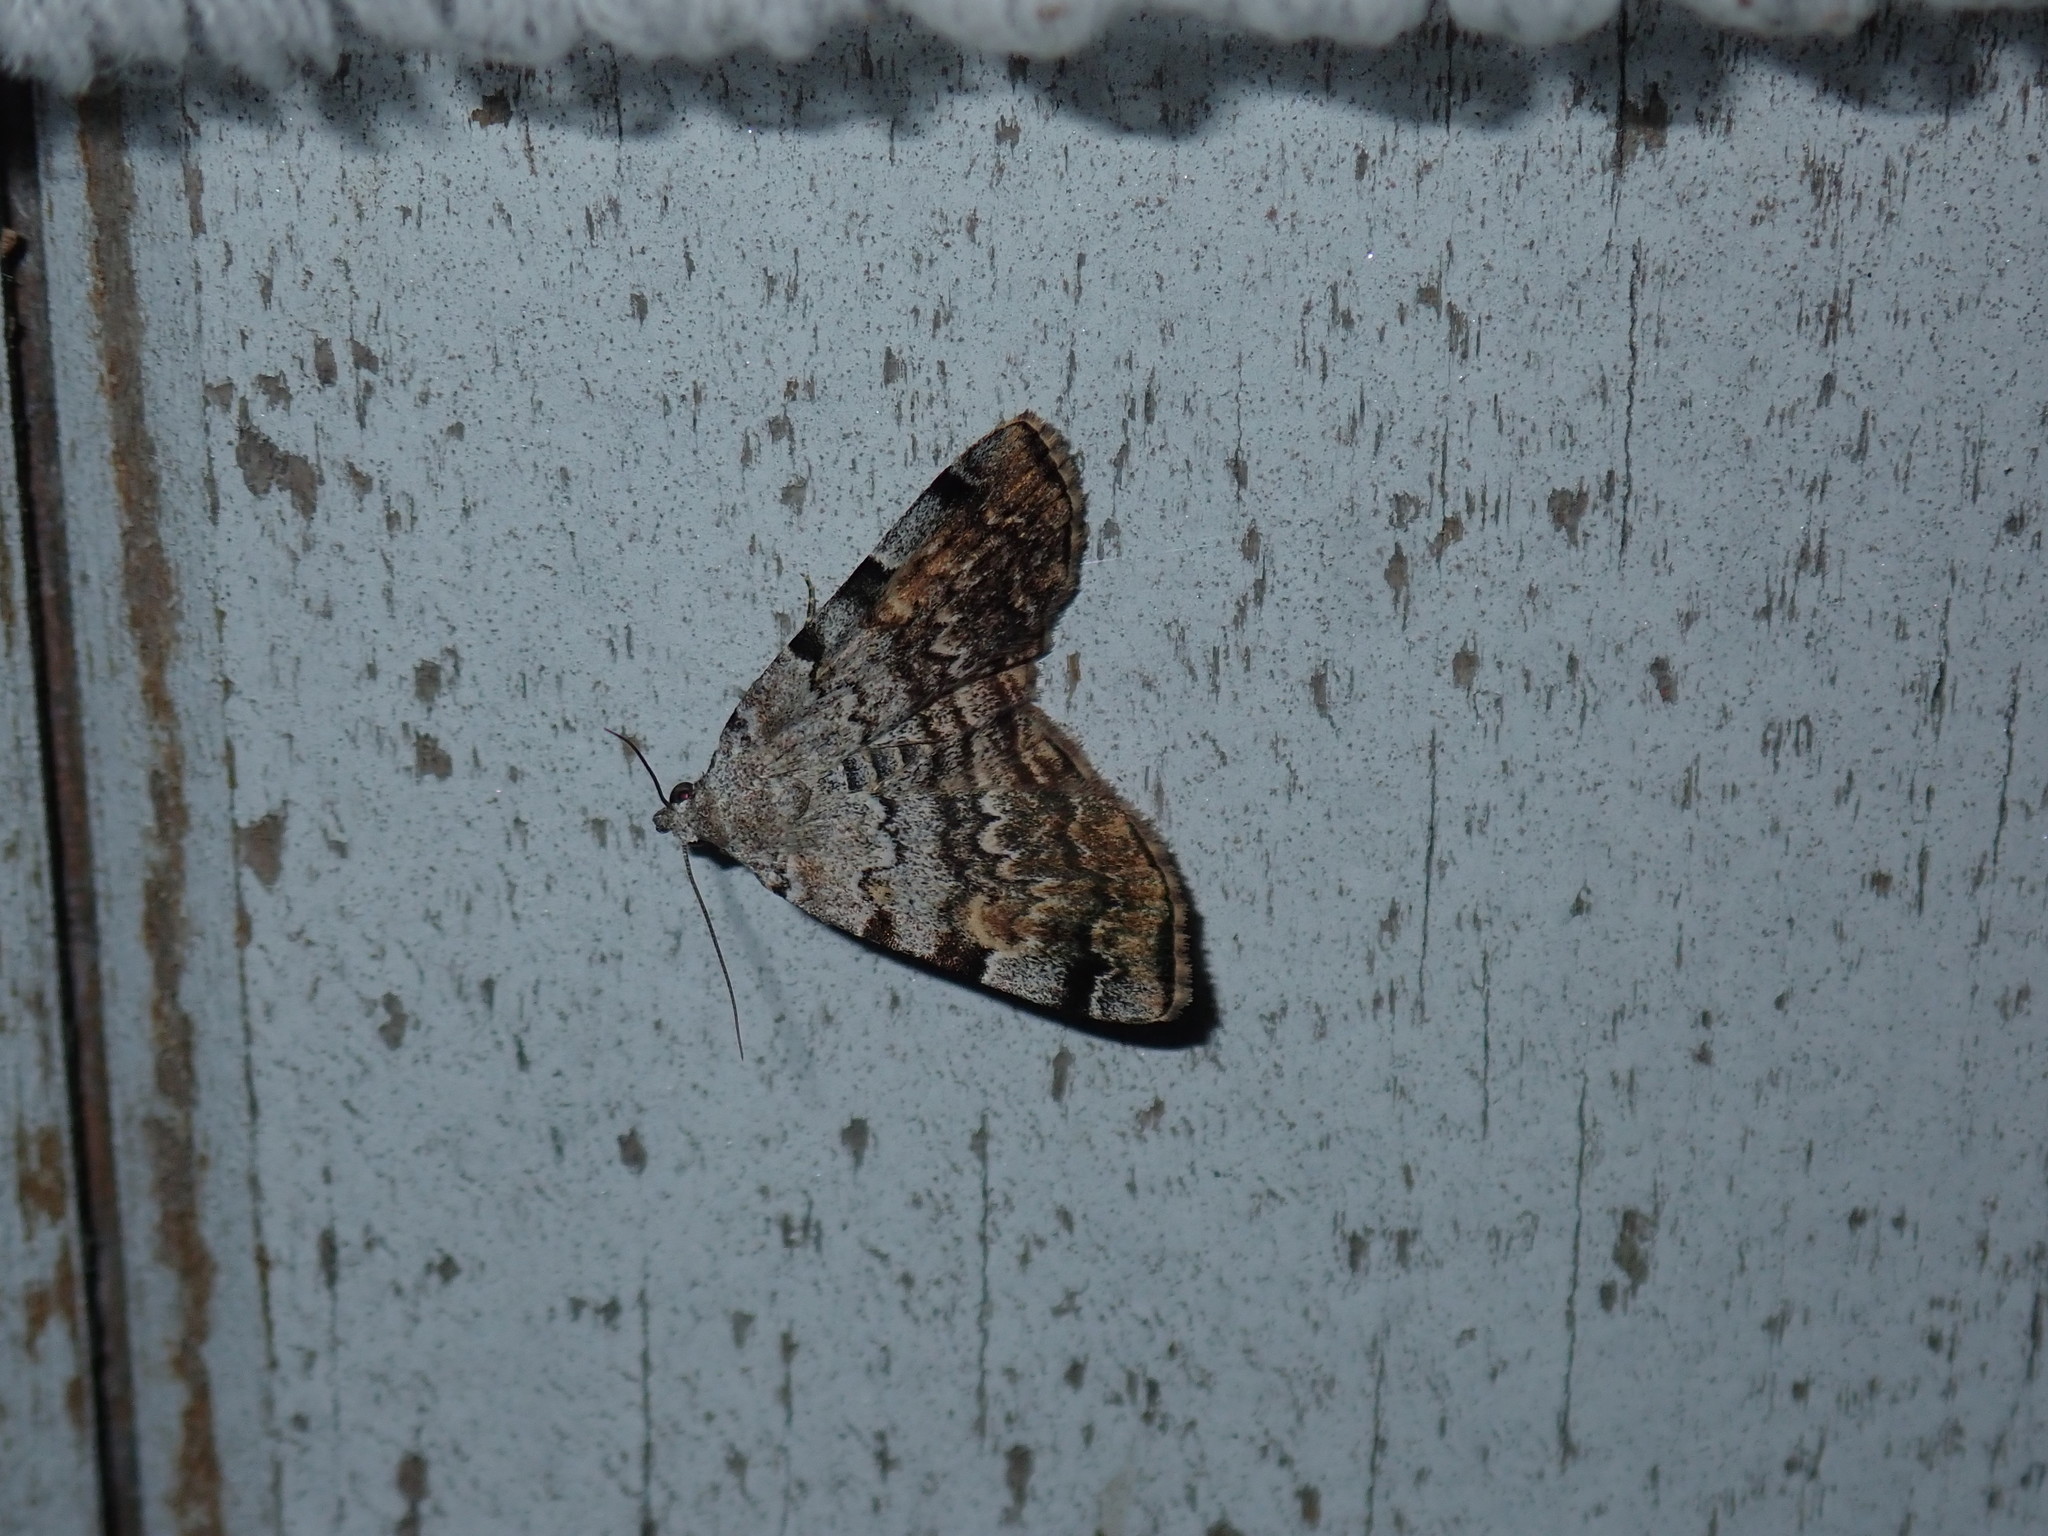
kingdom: Animalia
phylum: Arthropoda
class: Insecta
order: Lepidoptera
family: Erebidae
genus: Idia
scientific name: Idia americalis
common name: American idia moth
